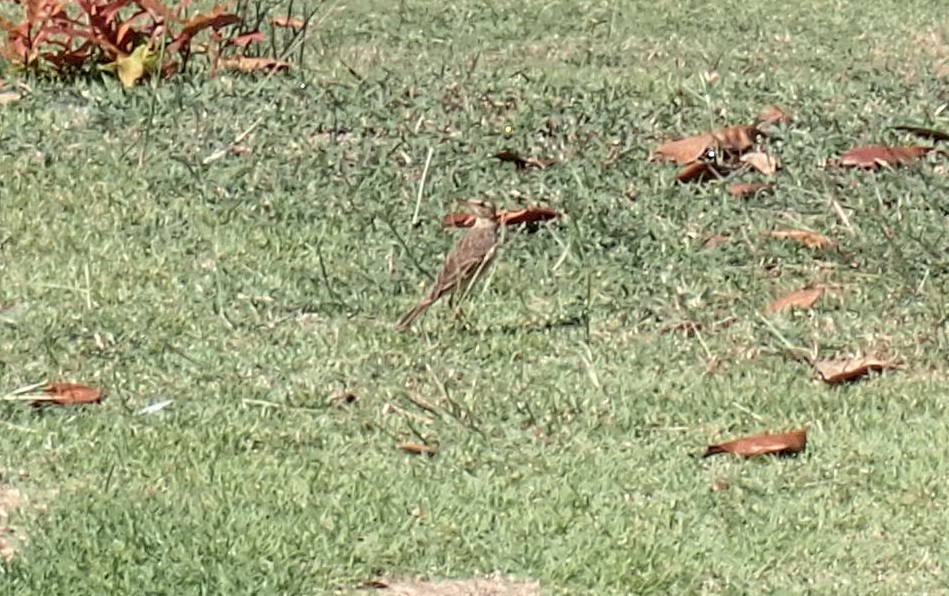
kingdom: Animalia
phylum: Chordata
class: Aves
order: Passeriformes
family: Motacillidae
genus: Anthus
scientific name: Anthus rufulus
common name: Paddyfield pipit
